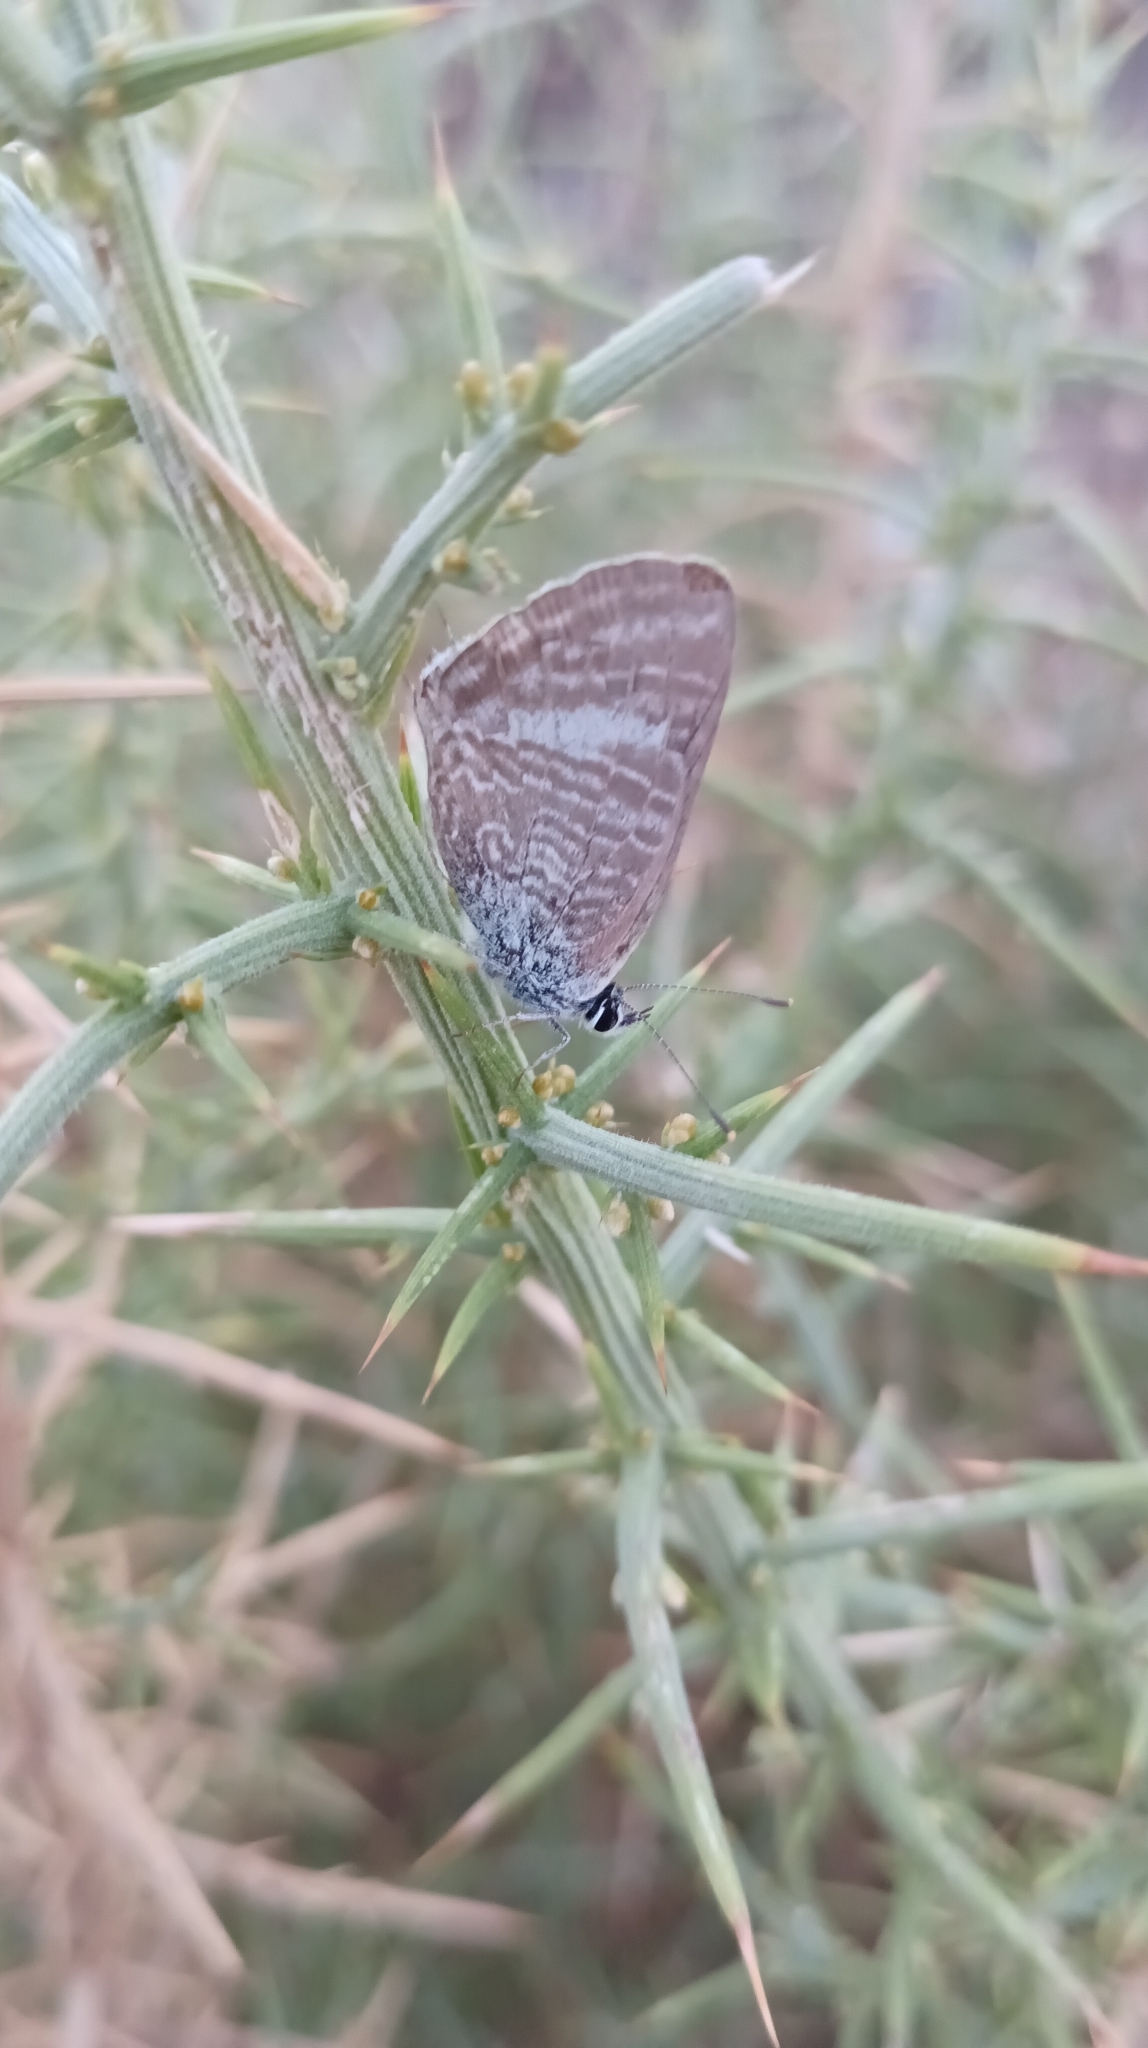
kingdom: Animalia
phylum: Arthropoda
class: Insecta
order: Lepidoptera
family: Lycaenidae
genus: Lampides
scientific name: Lampides boeticus
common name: Long-tailed blue
